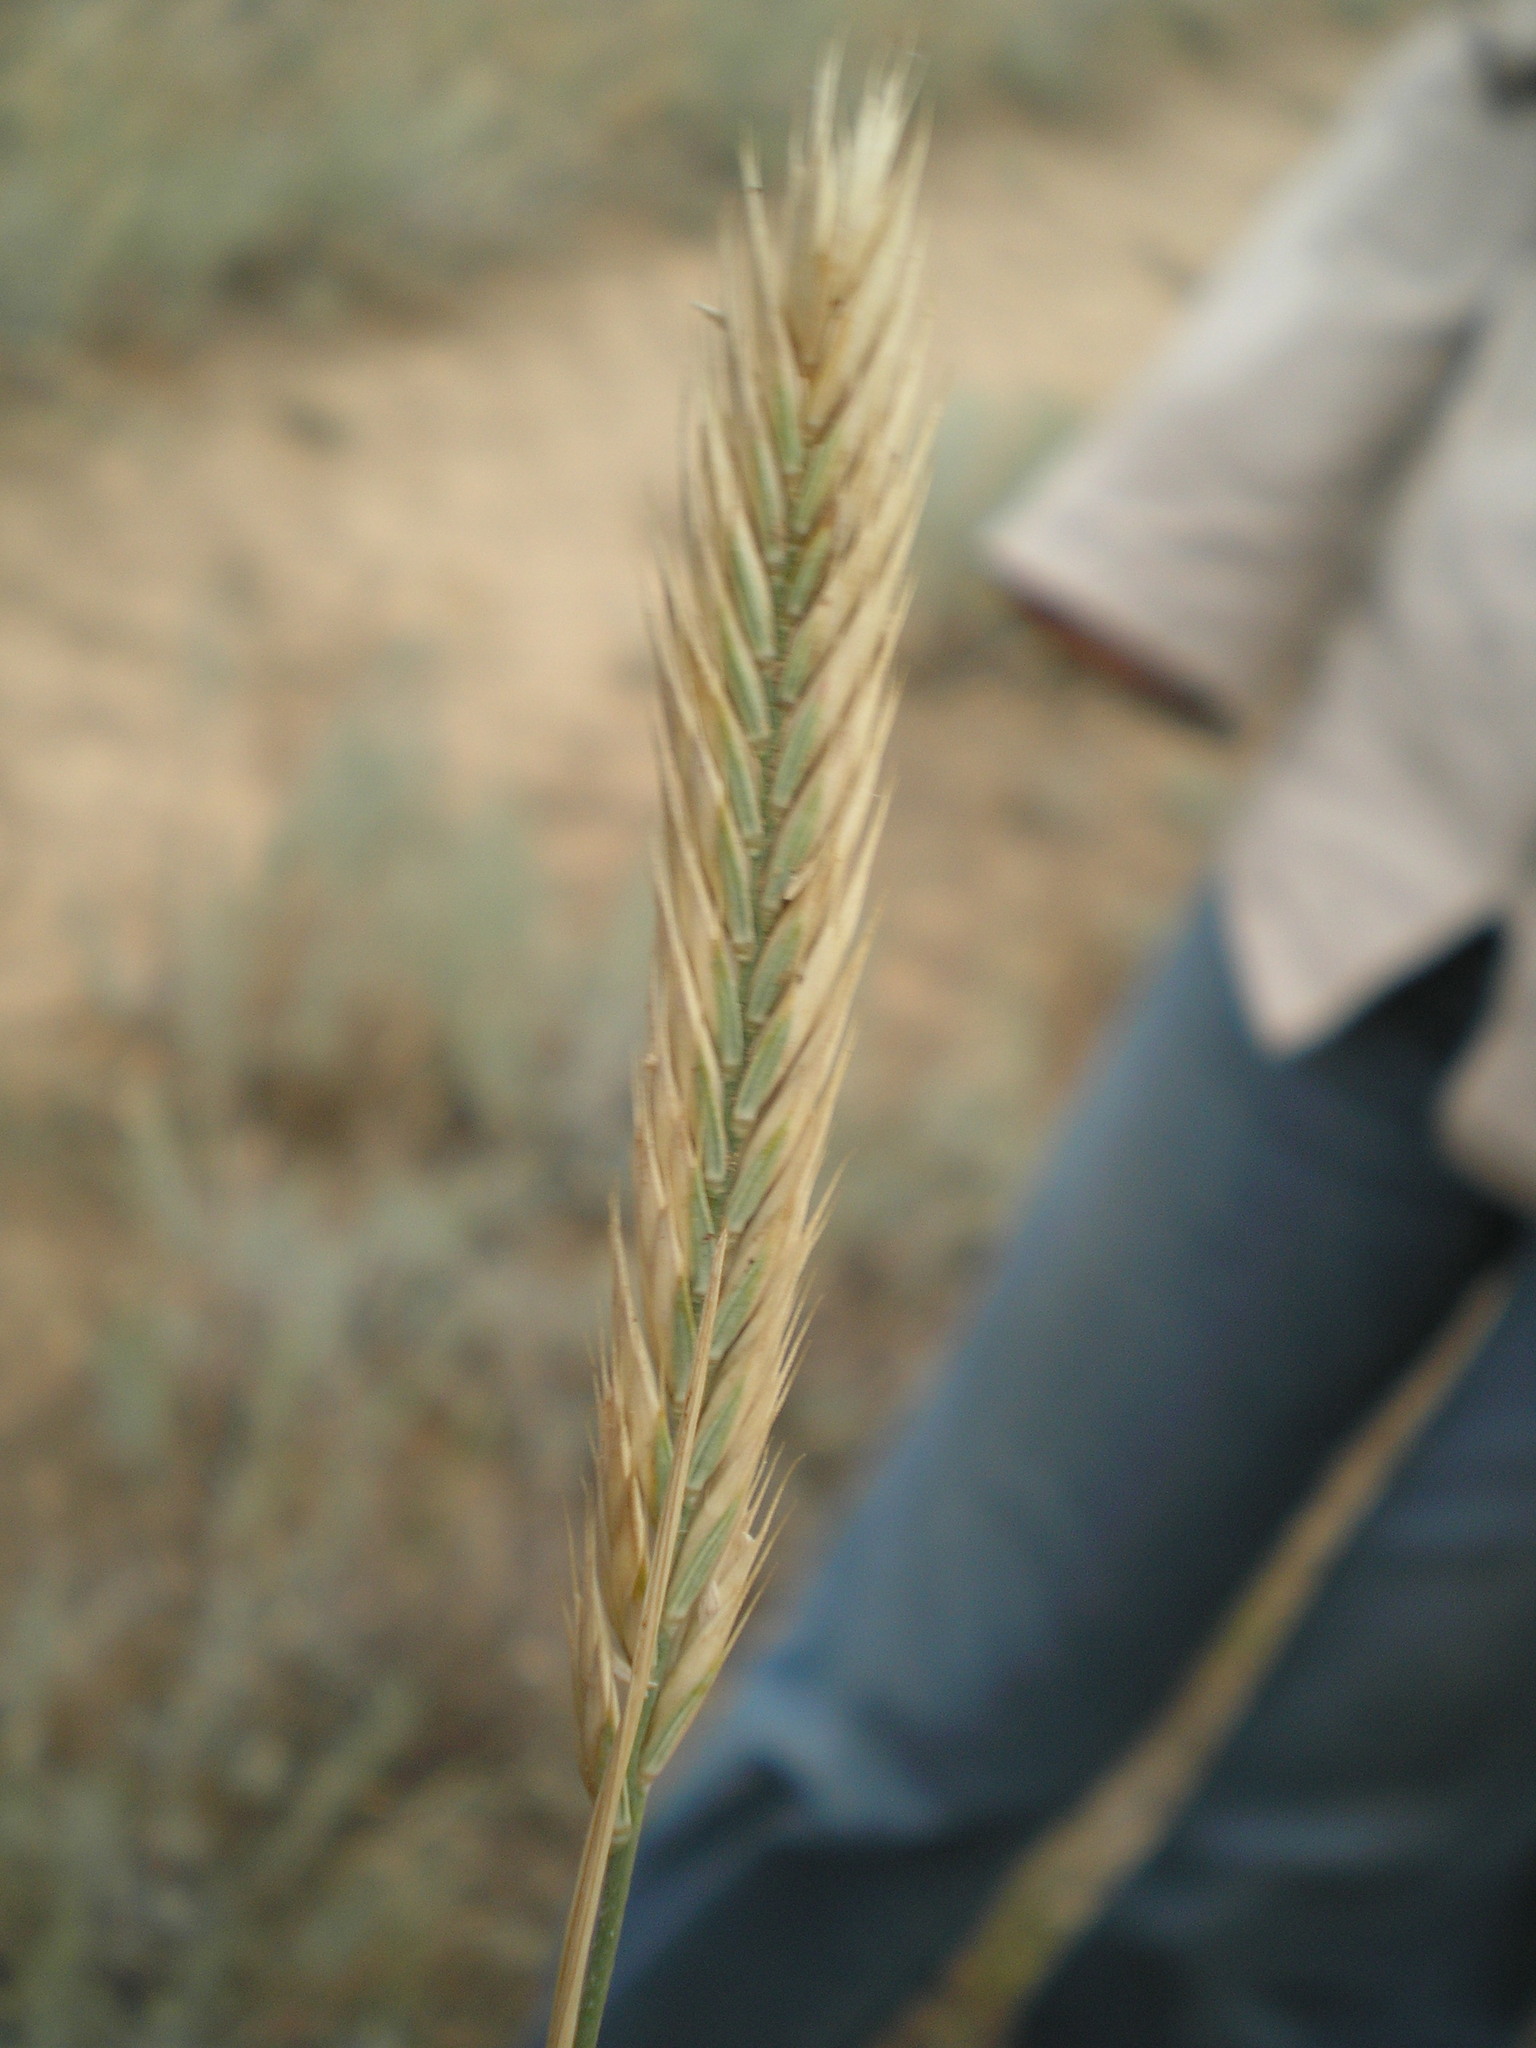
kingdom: Plantae
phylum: Tracheophyta
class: Liliopsida
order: Poales
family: Poaceae
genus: Agropyron
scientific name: Agropyron cristatum
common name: Crested wheatgrass
